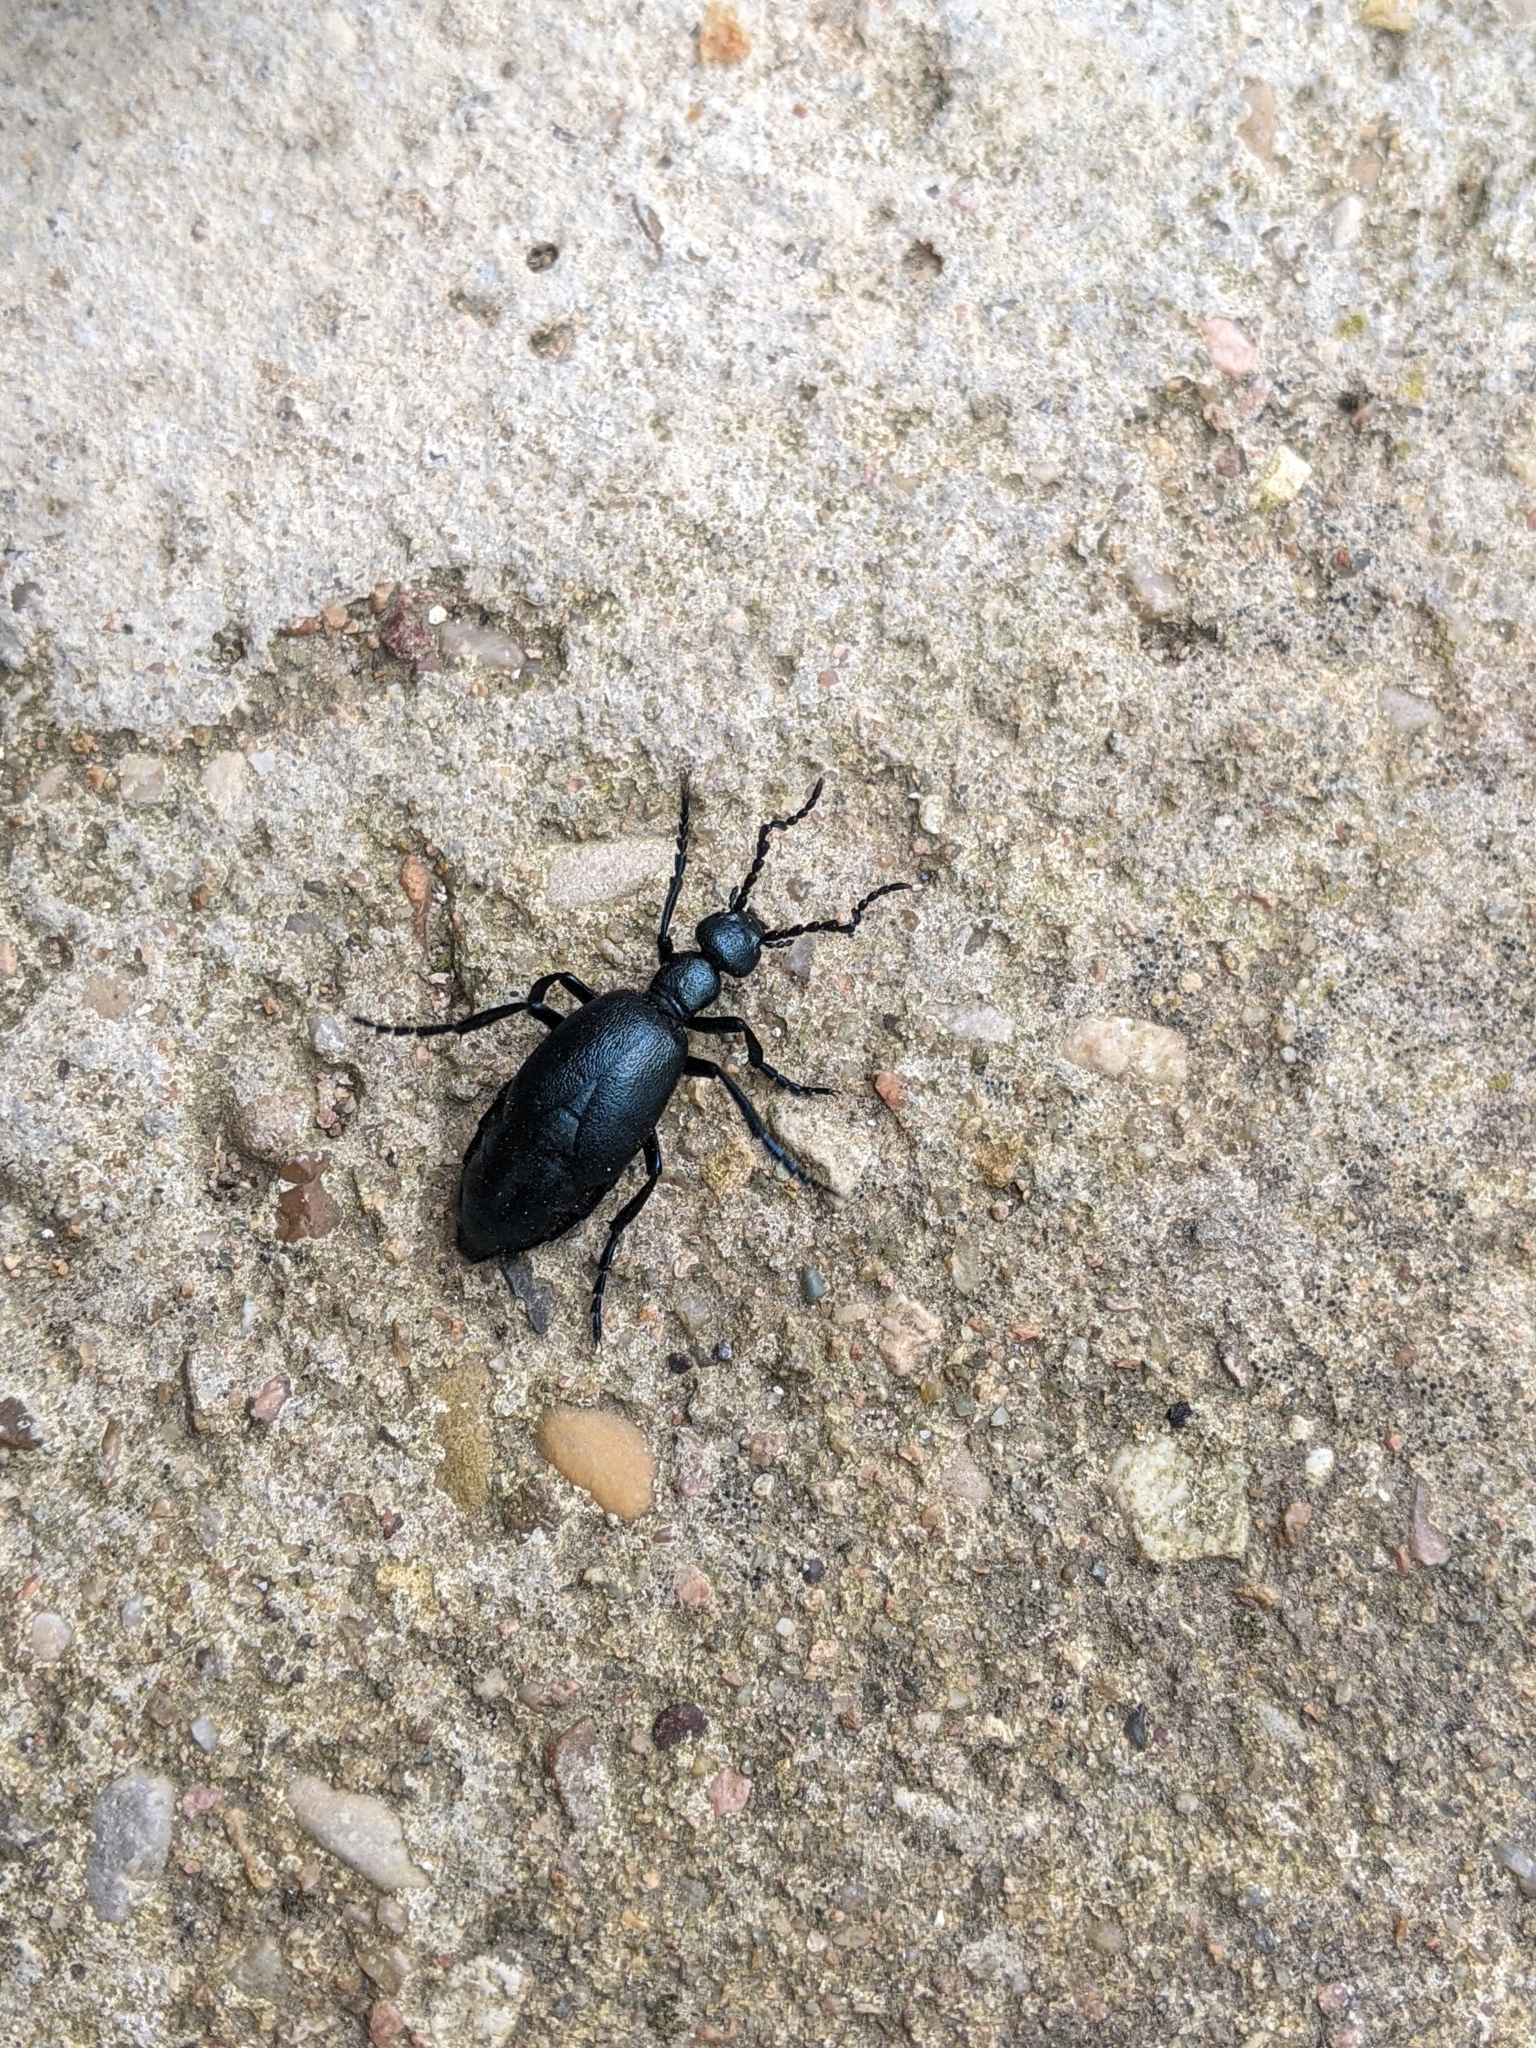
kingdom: Animalia
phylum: Arthropoda
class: Insecta
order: Coleoptera
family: Meloidae
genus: Meloe
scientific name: Meloe violaceus
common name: Violet oil-beetle
